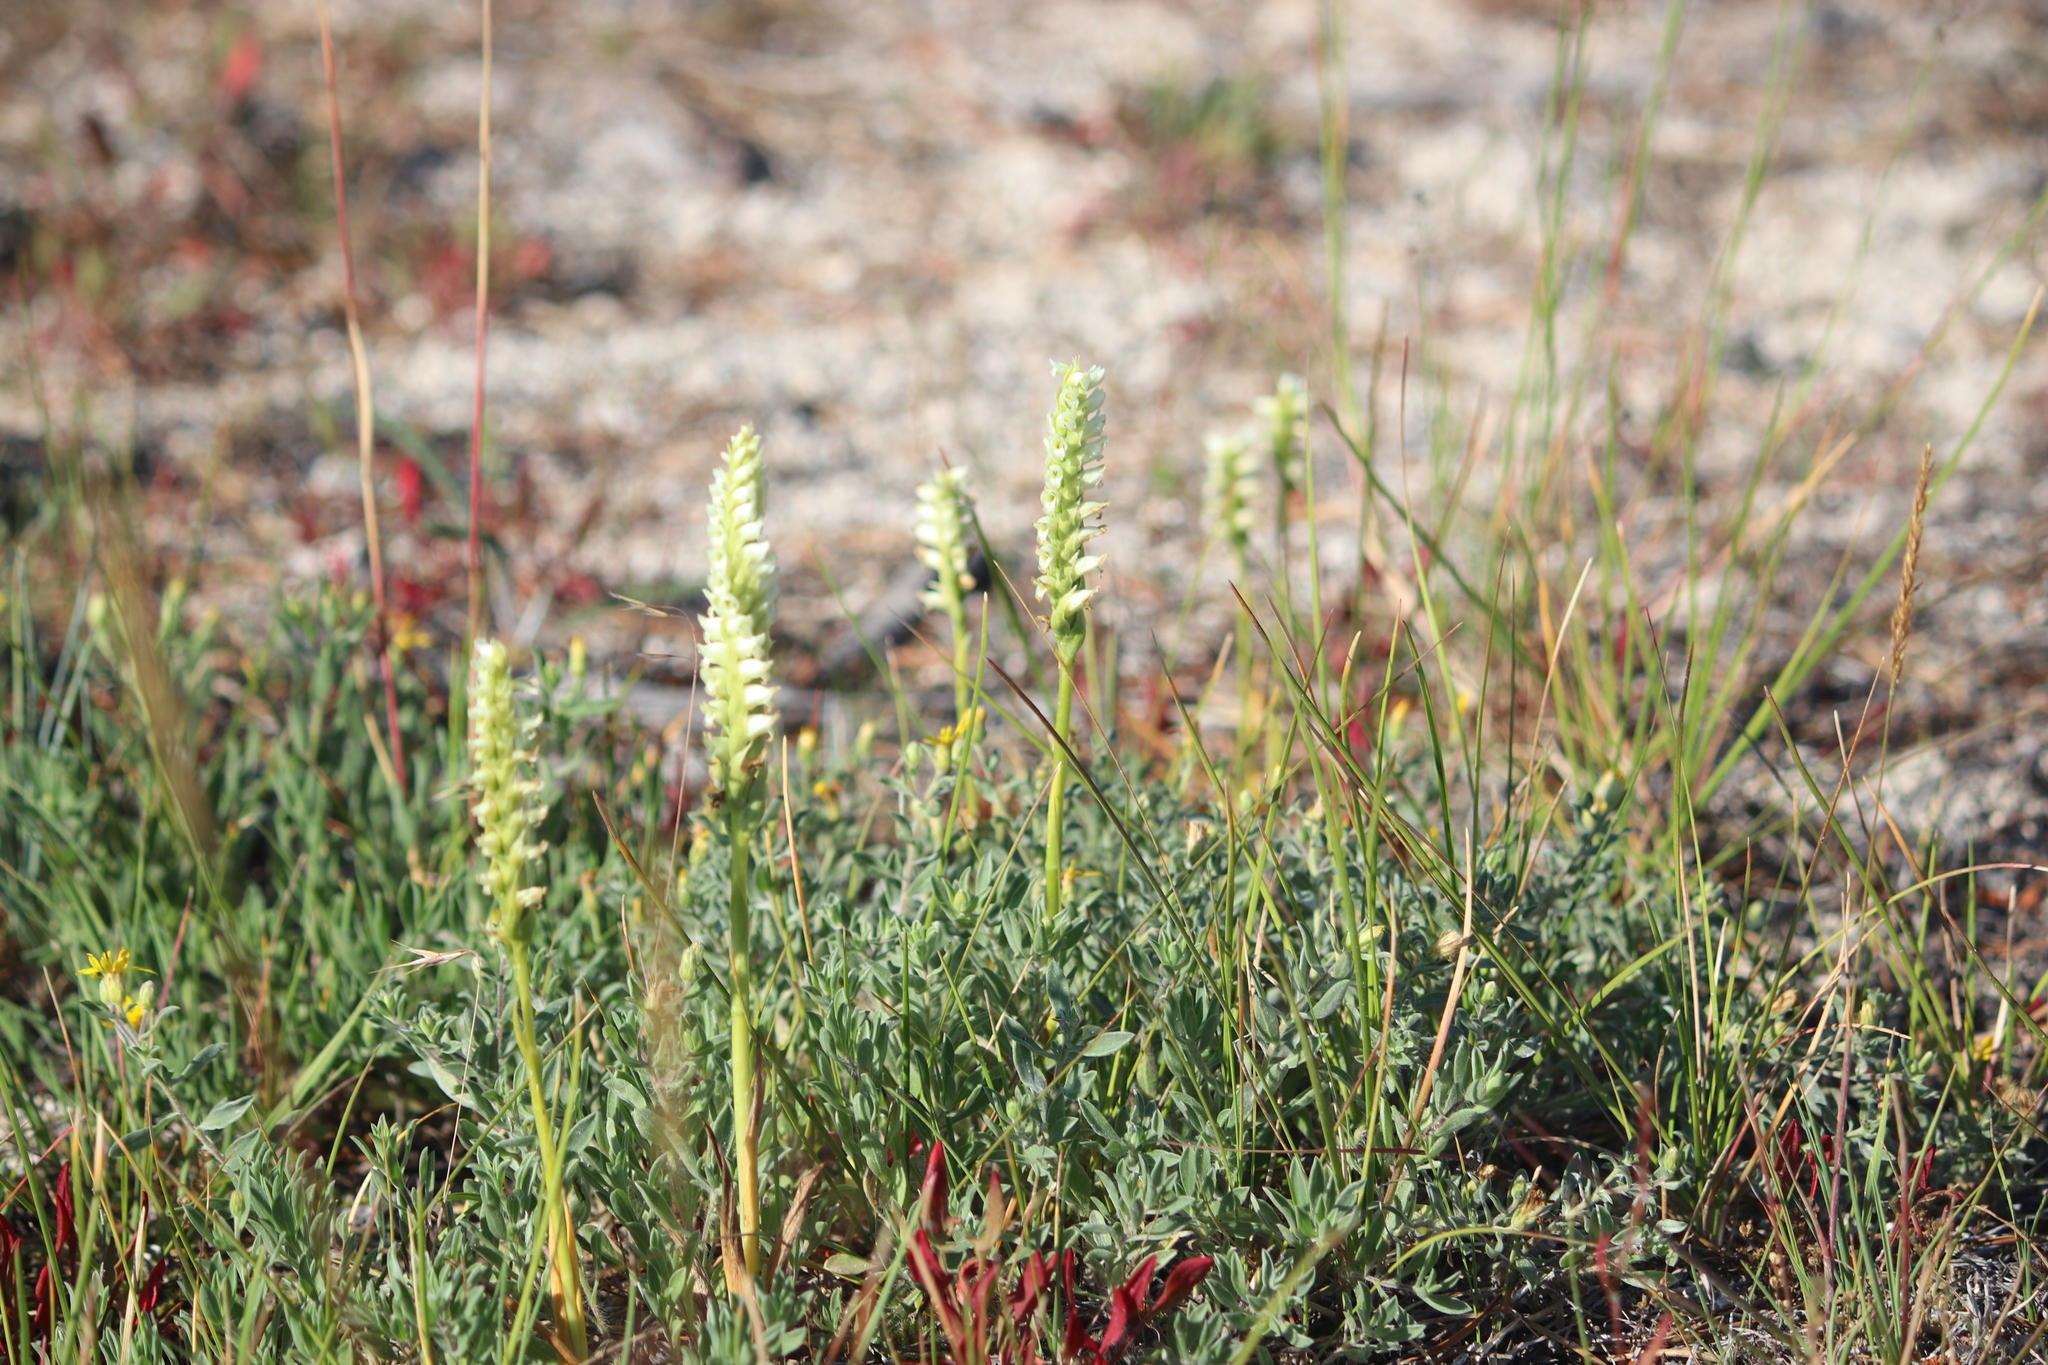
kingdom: Plantae
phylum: Tracheophyta
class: Liliopsida
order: Asparagales
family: Orchidaceae
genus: Spiranthes
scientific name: Spiranthes romanzoffiana
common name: Irish lady's-tresses
